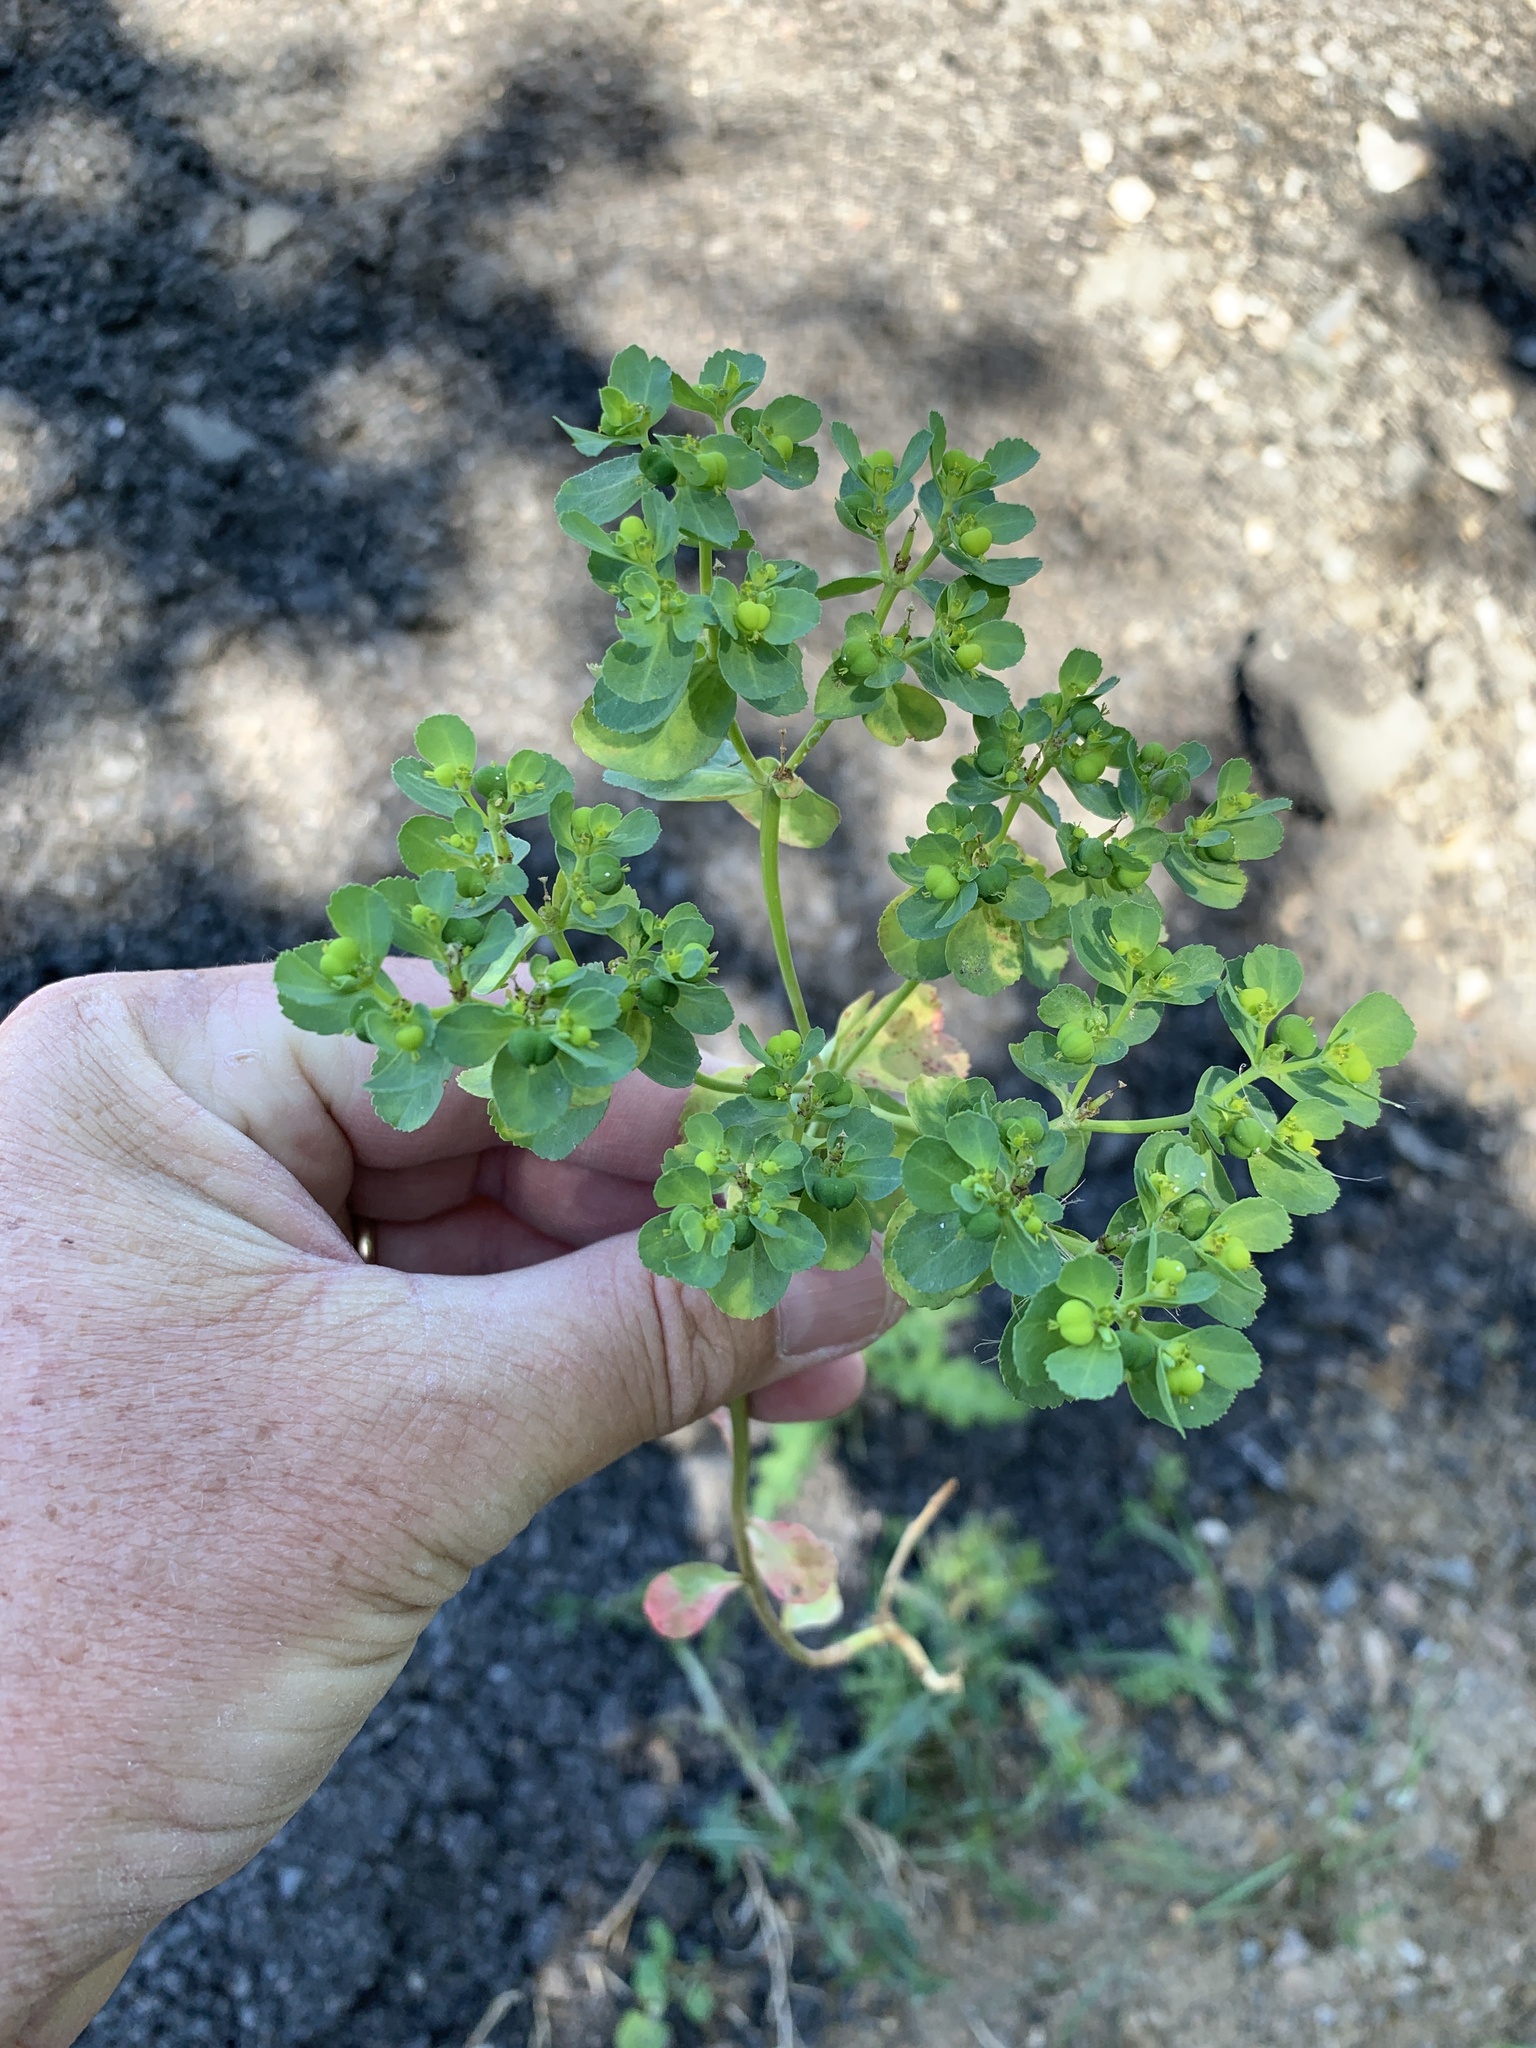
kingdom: Plantae
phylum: Tracheophyta
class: Magnoliopsida
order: Malpighiales
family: Euphorbiaceae
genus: Euphorbia
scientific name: Euphorbia helioscopia
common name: Sun spurge
